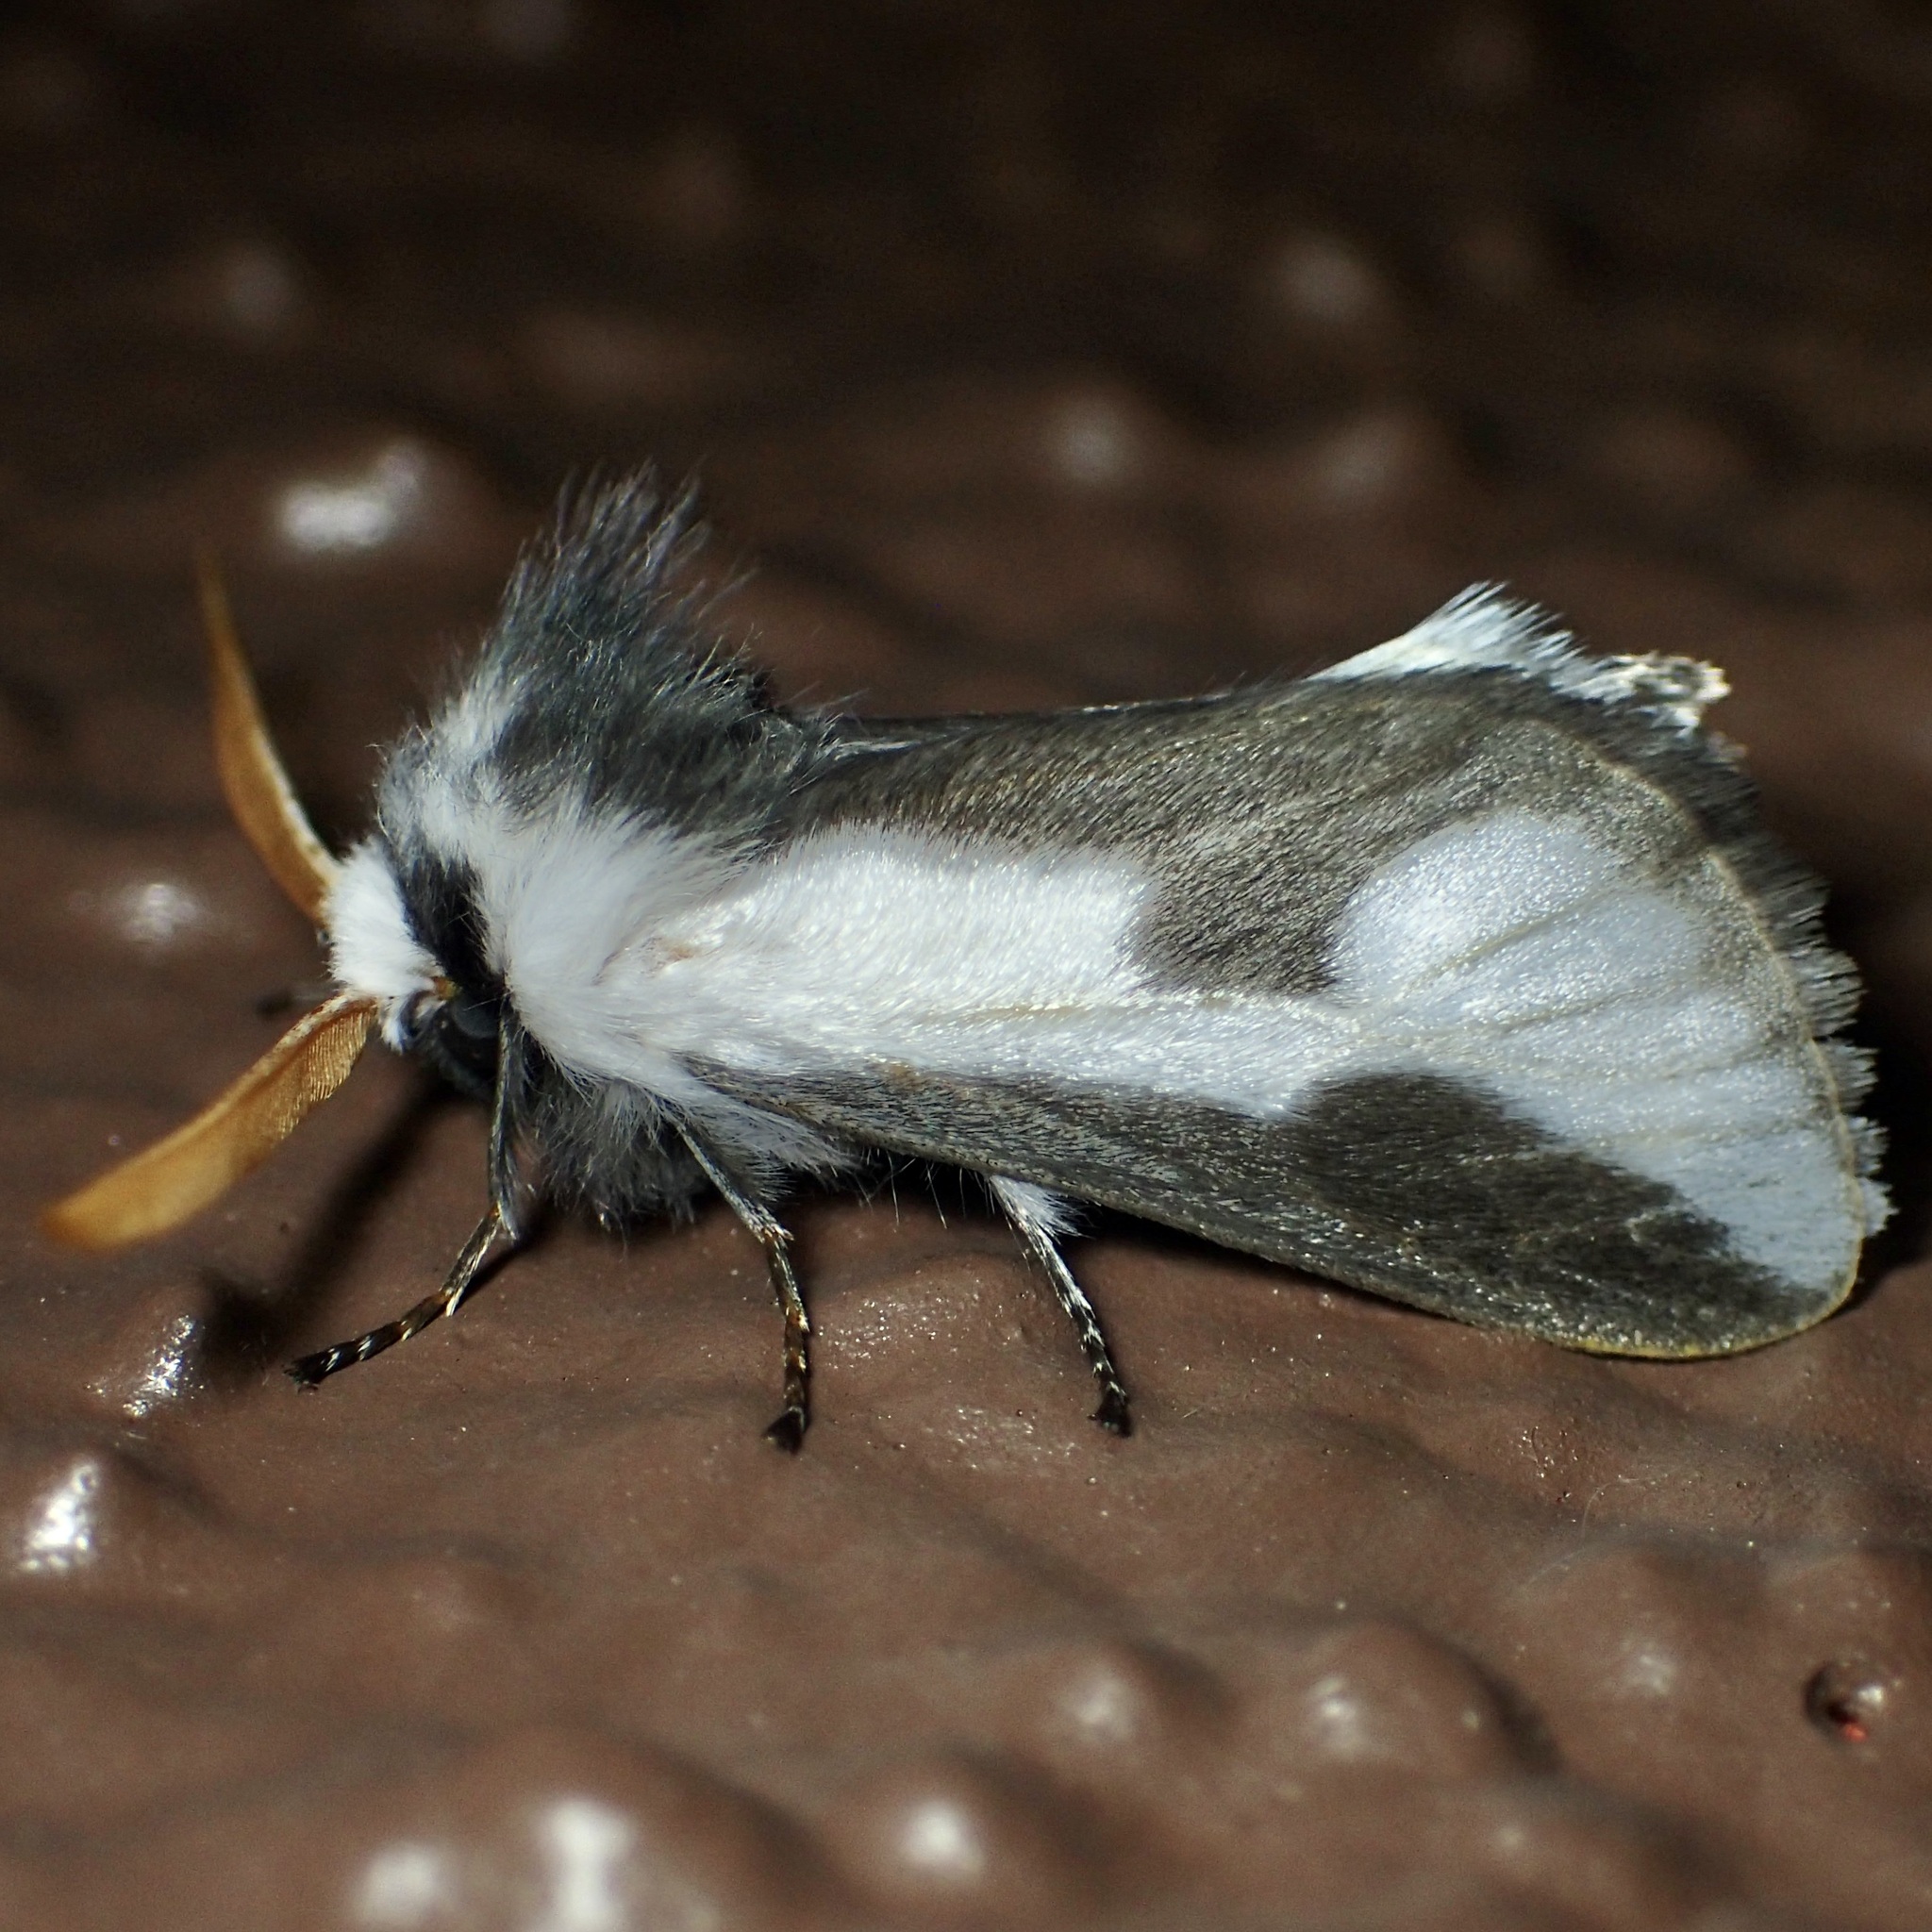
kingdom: Animalia
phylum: Arthropoda
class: Insecta
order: Lepidoptera
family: Megalopygidae
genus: Norape
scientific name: Norape tener
